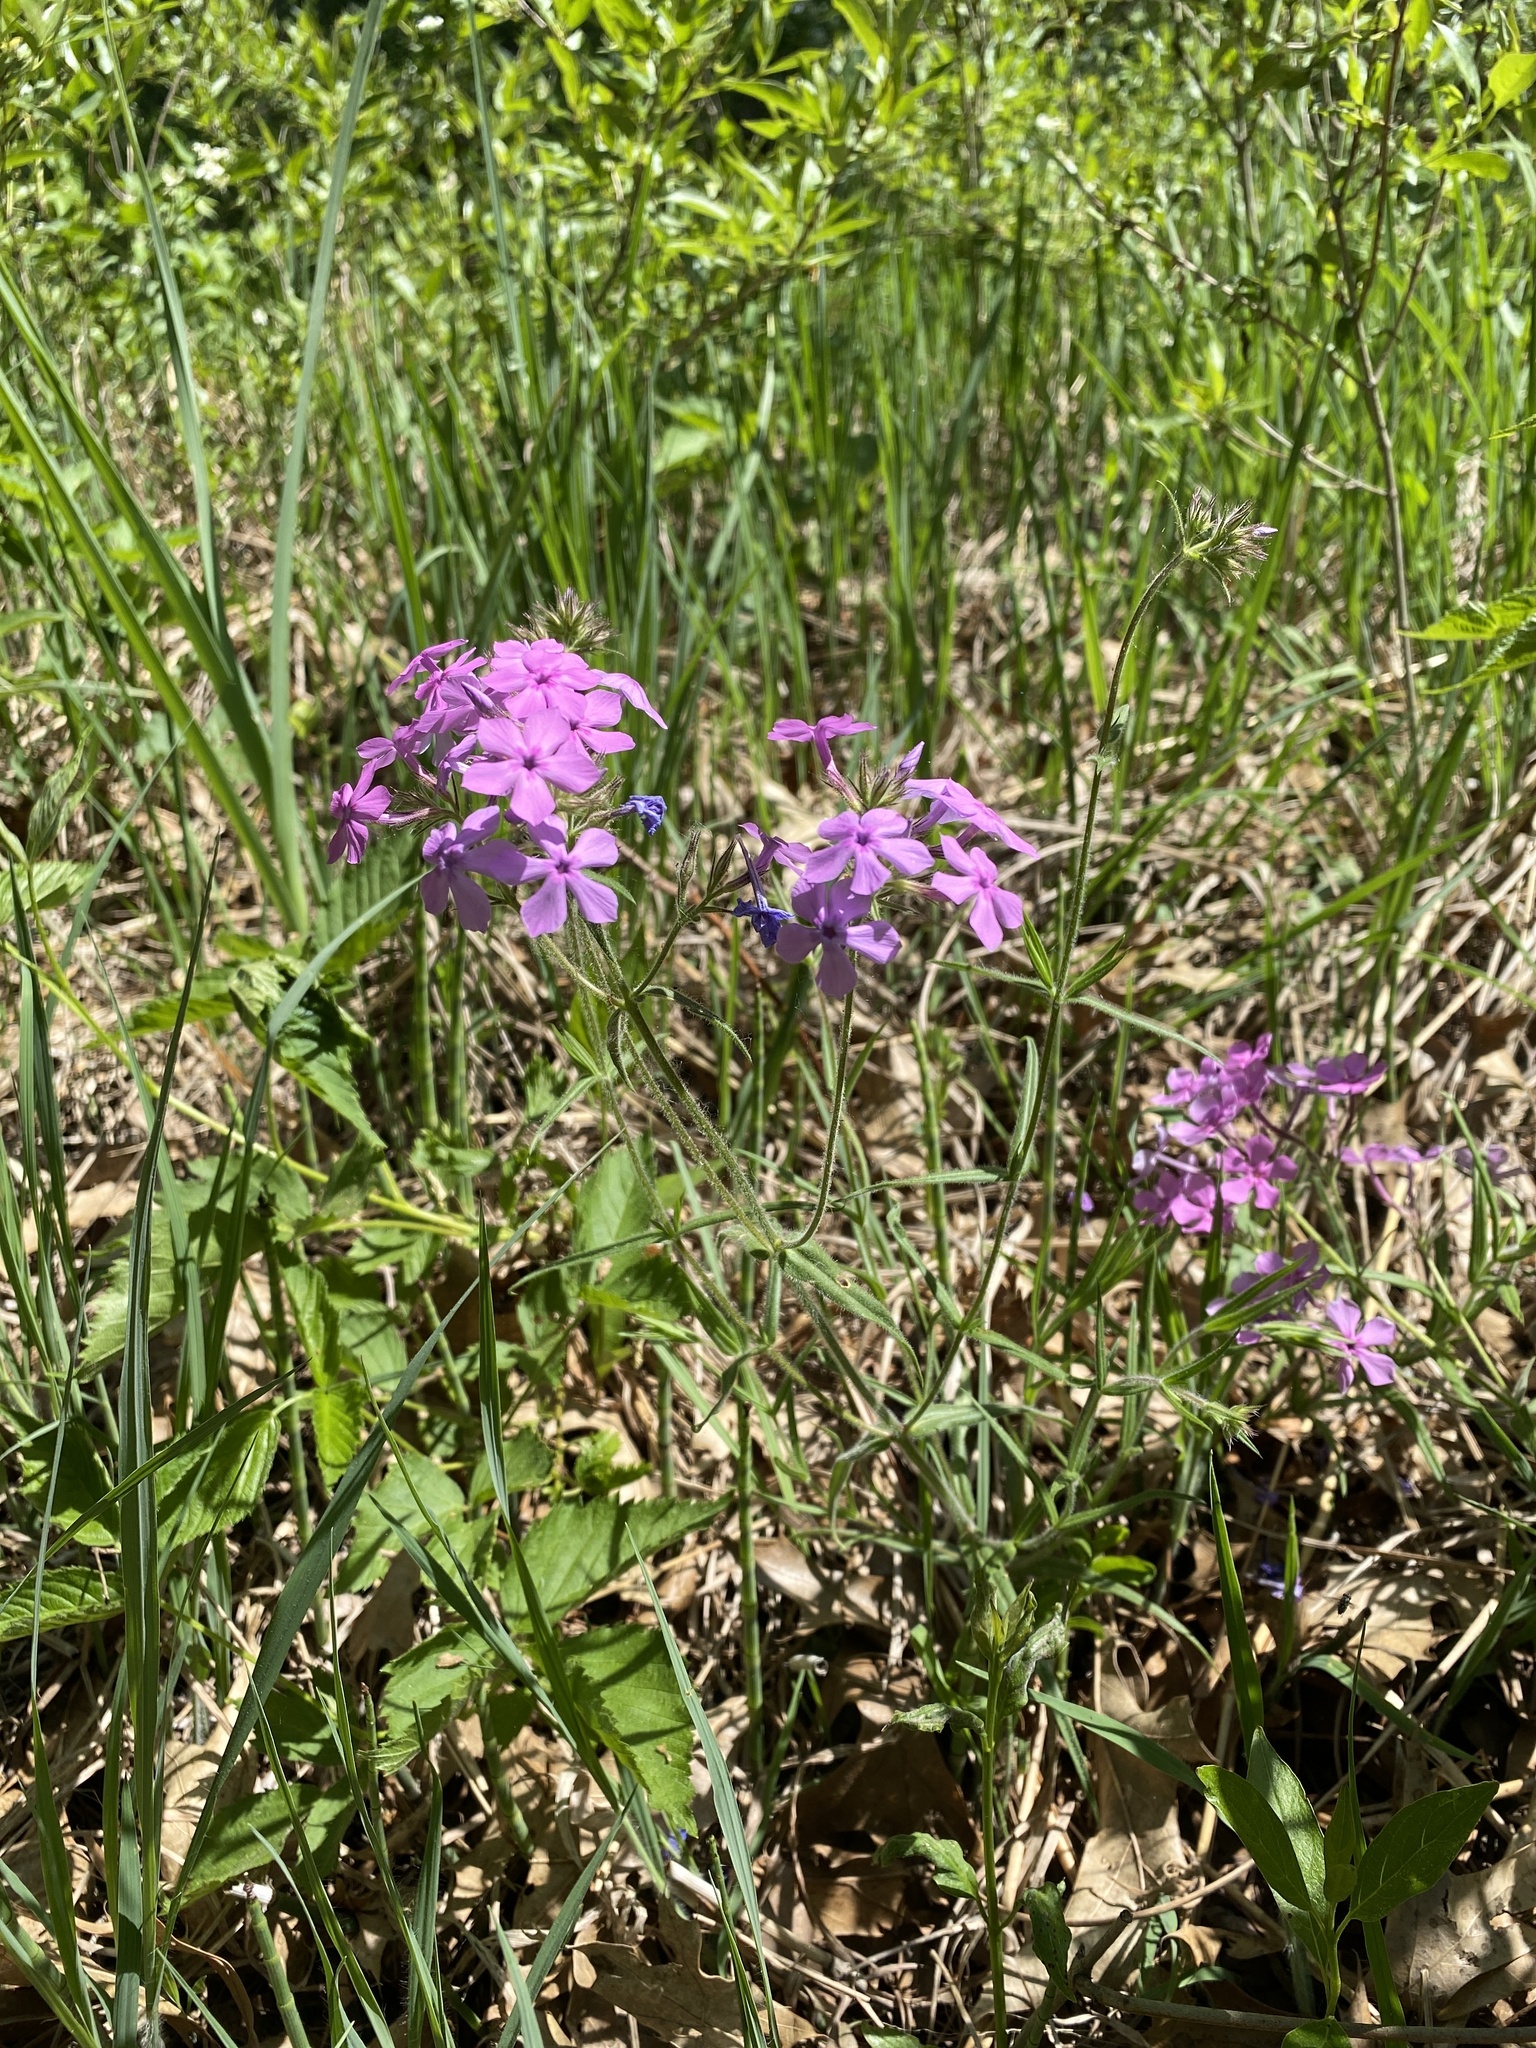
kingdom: Plantae
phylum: Tracheophyta
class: Magnoliopsida
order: Ericales
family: Polemoniaceae
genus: Phlox
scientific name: Phlox pilosa
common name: Prairie phlox
